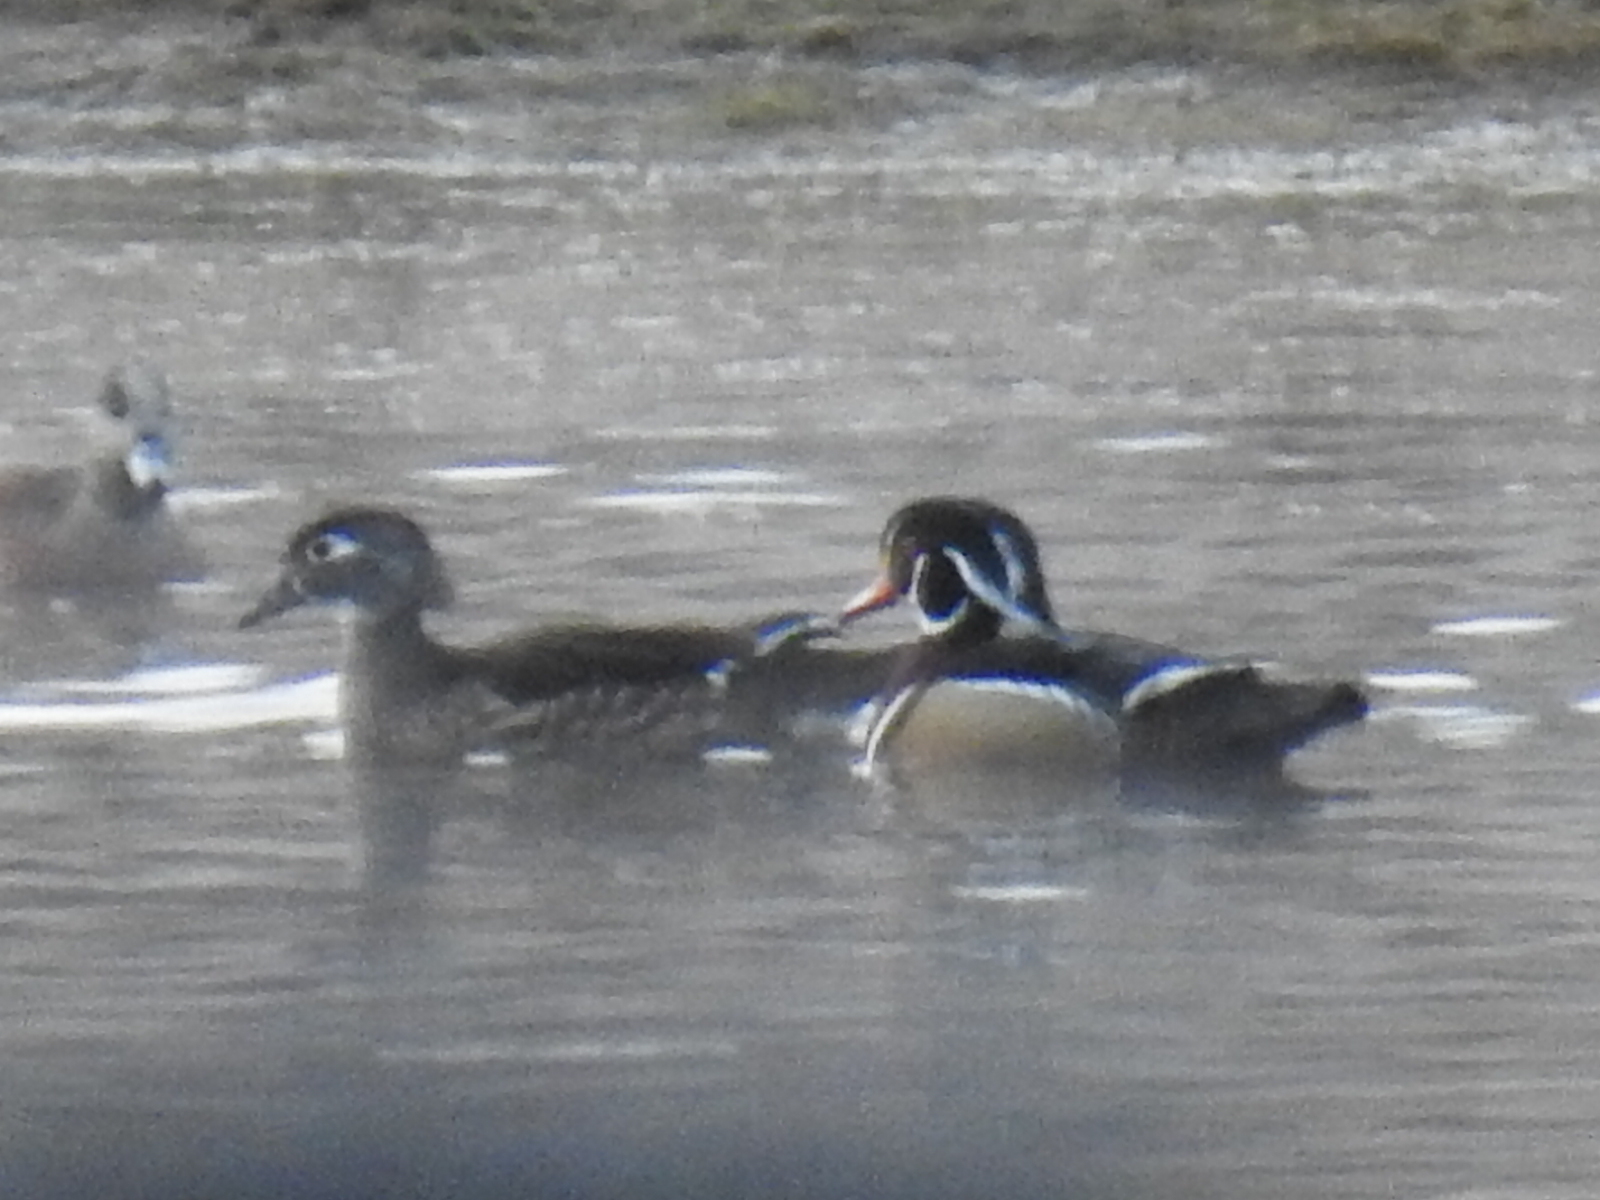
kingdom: Animalia
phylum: Chordata
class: Aves
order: Anseriformes
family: Anatidae
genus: Aix
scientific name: Aix sponsa
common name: Wood duck
